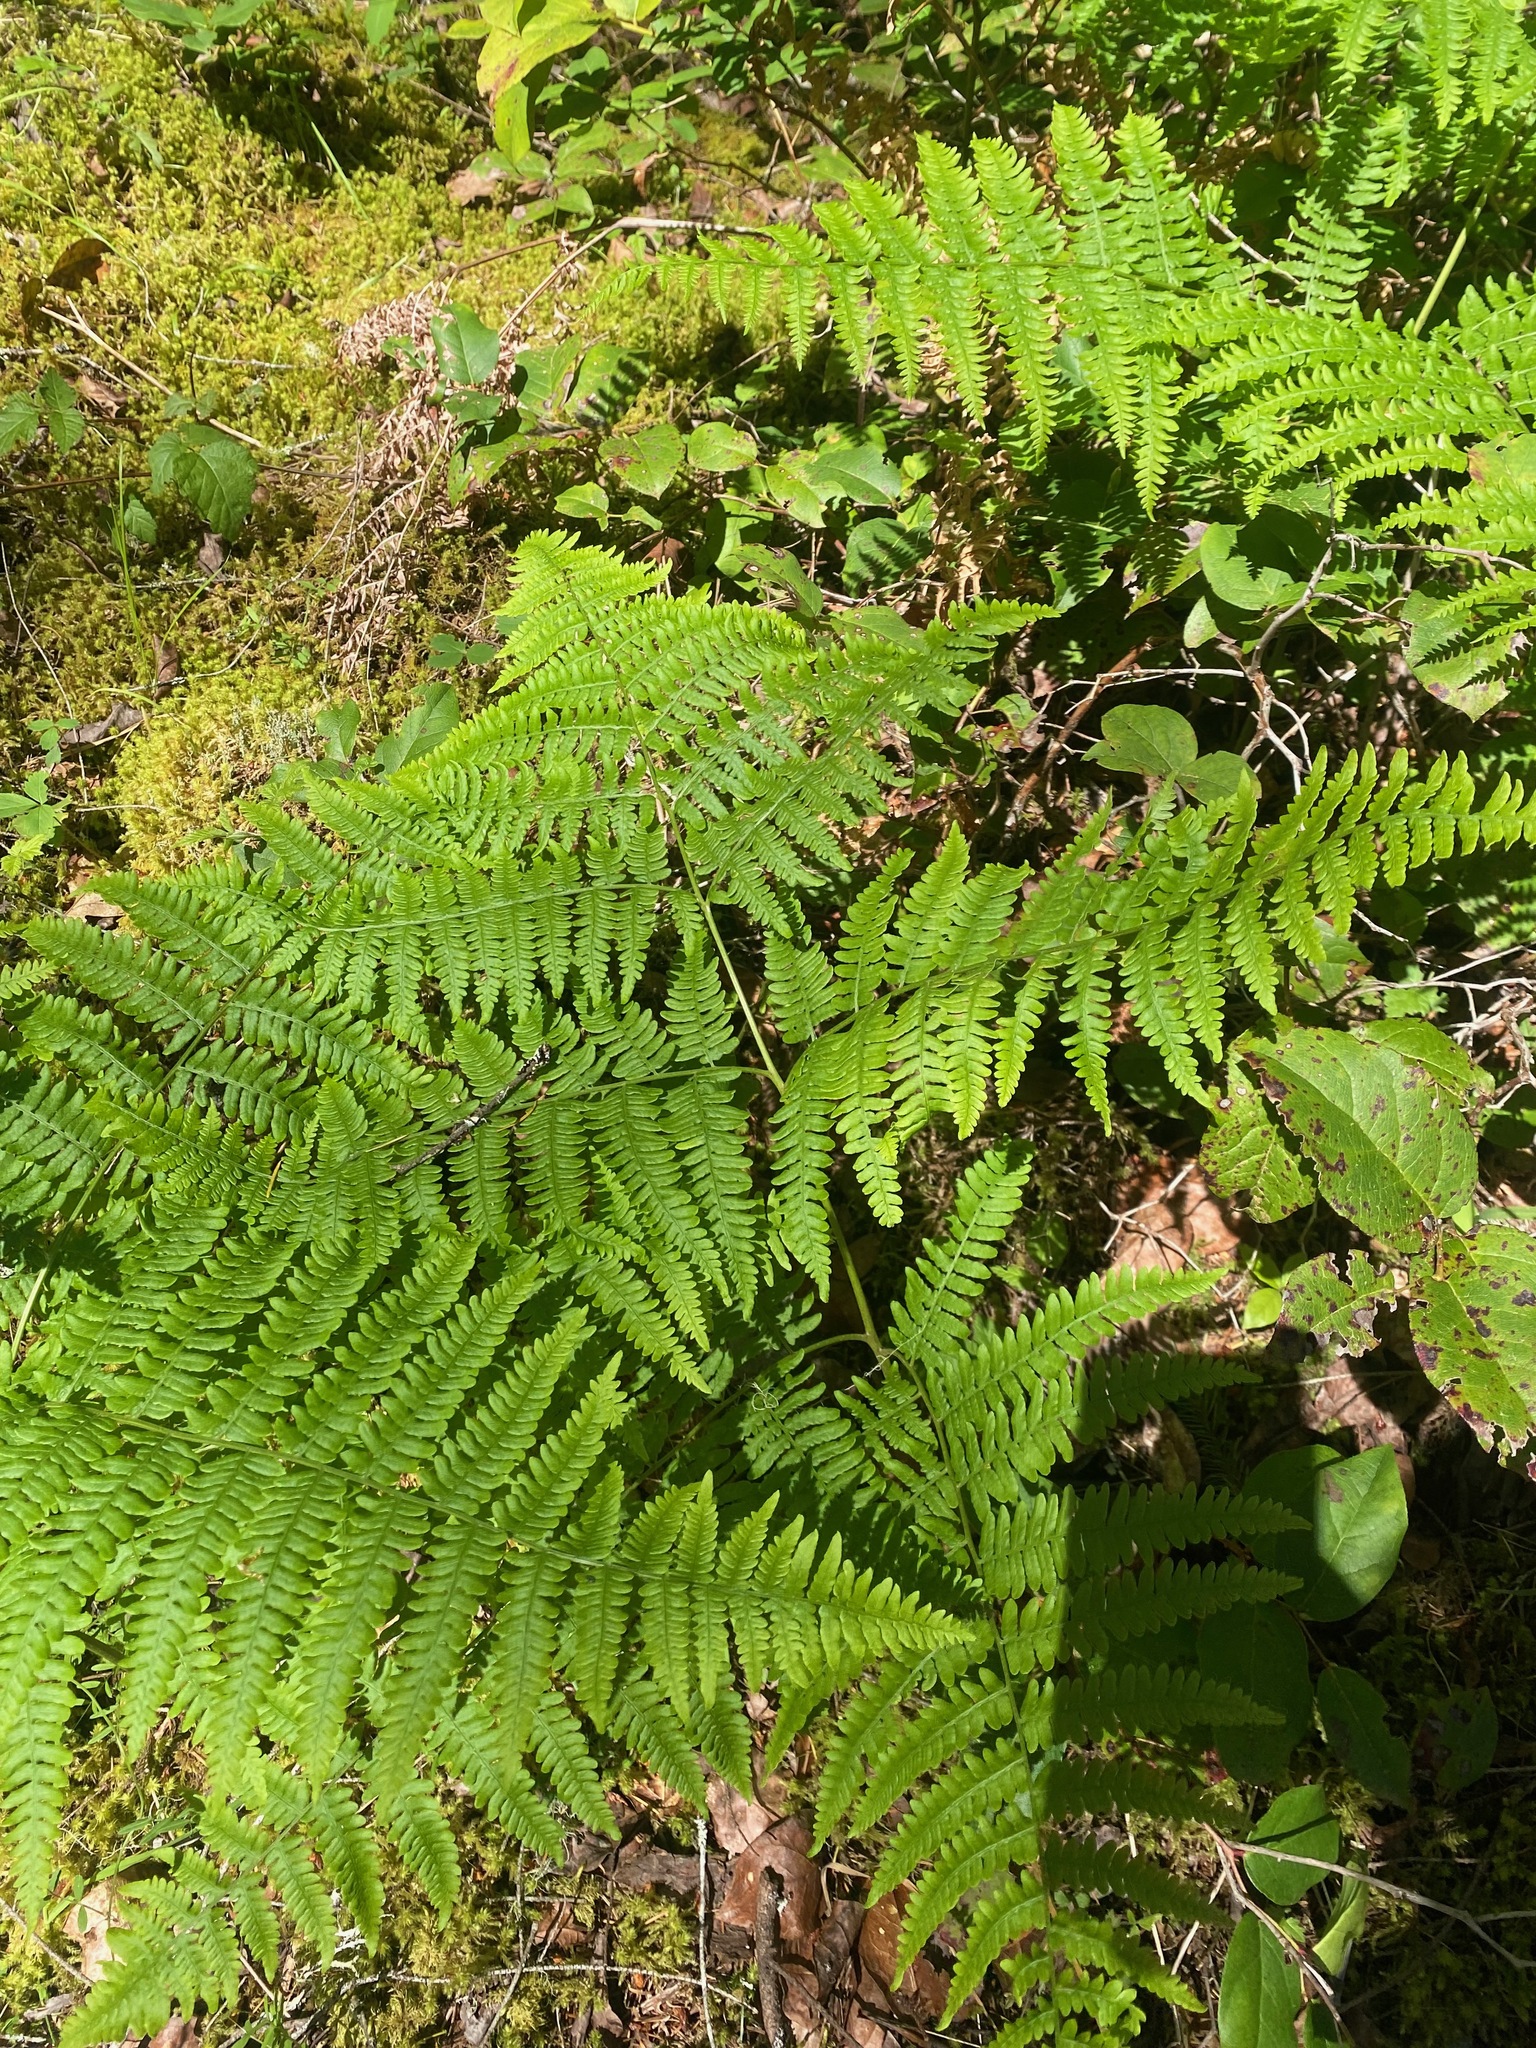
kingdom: Plantae
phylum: Tracheophyta
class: Polypodiopsida
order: Polypodiales
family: Dennstaedtiaceae
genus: Pteridium
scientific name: Pteridium aquilinum
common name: Bracken
